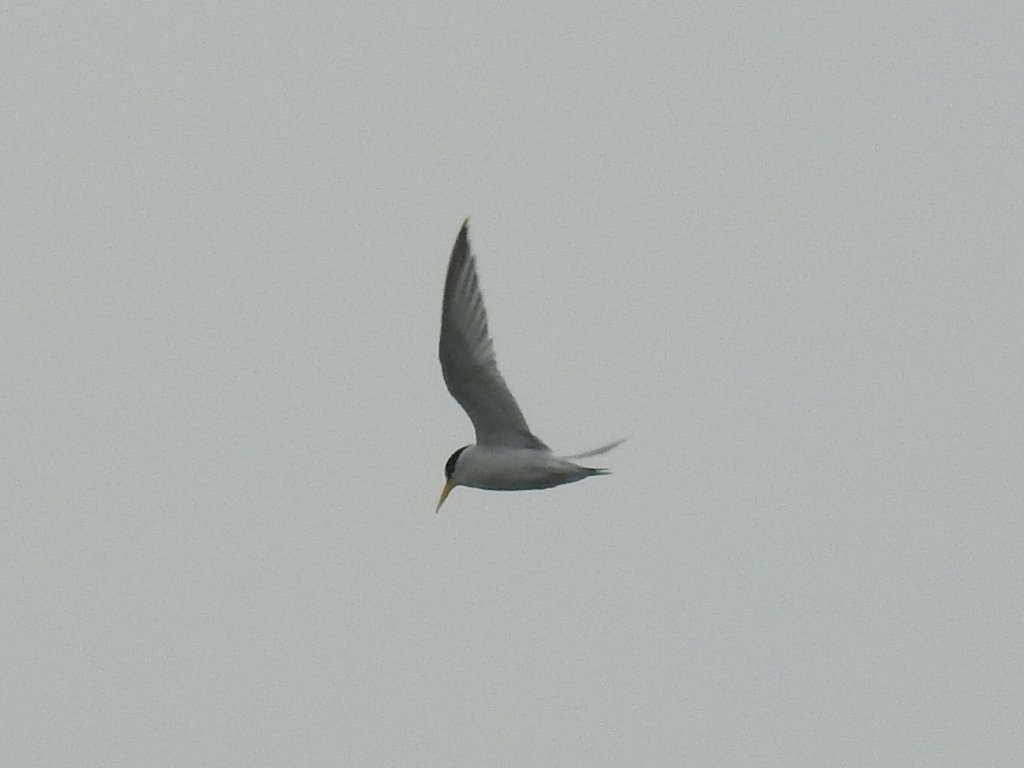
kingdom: Animalia
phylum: Chordata
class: Aves
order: Charadriiformes
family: Laridae
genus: Sternula
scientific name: Sternula antillarum
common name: Least tern
